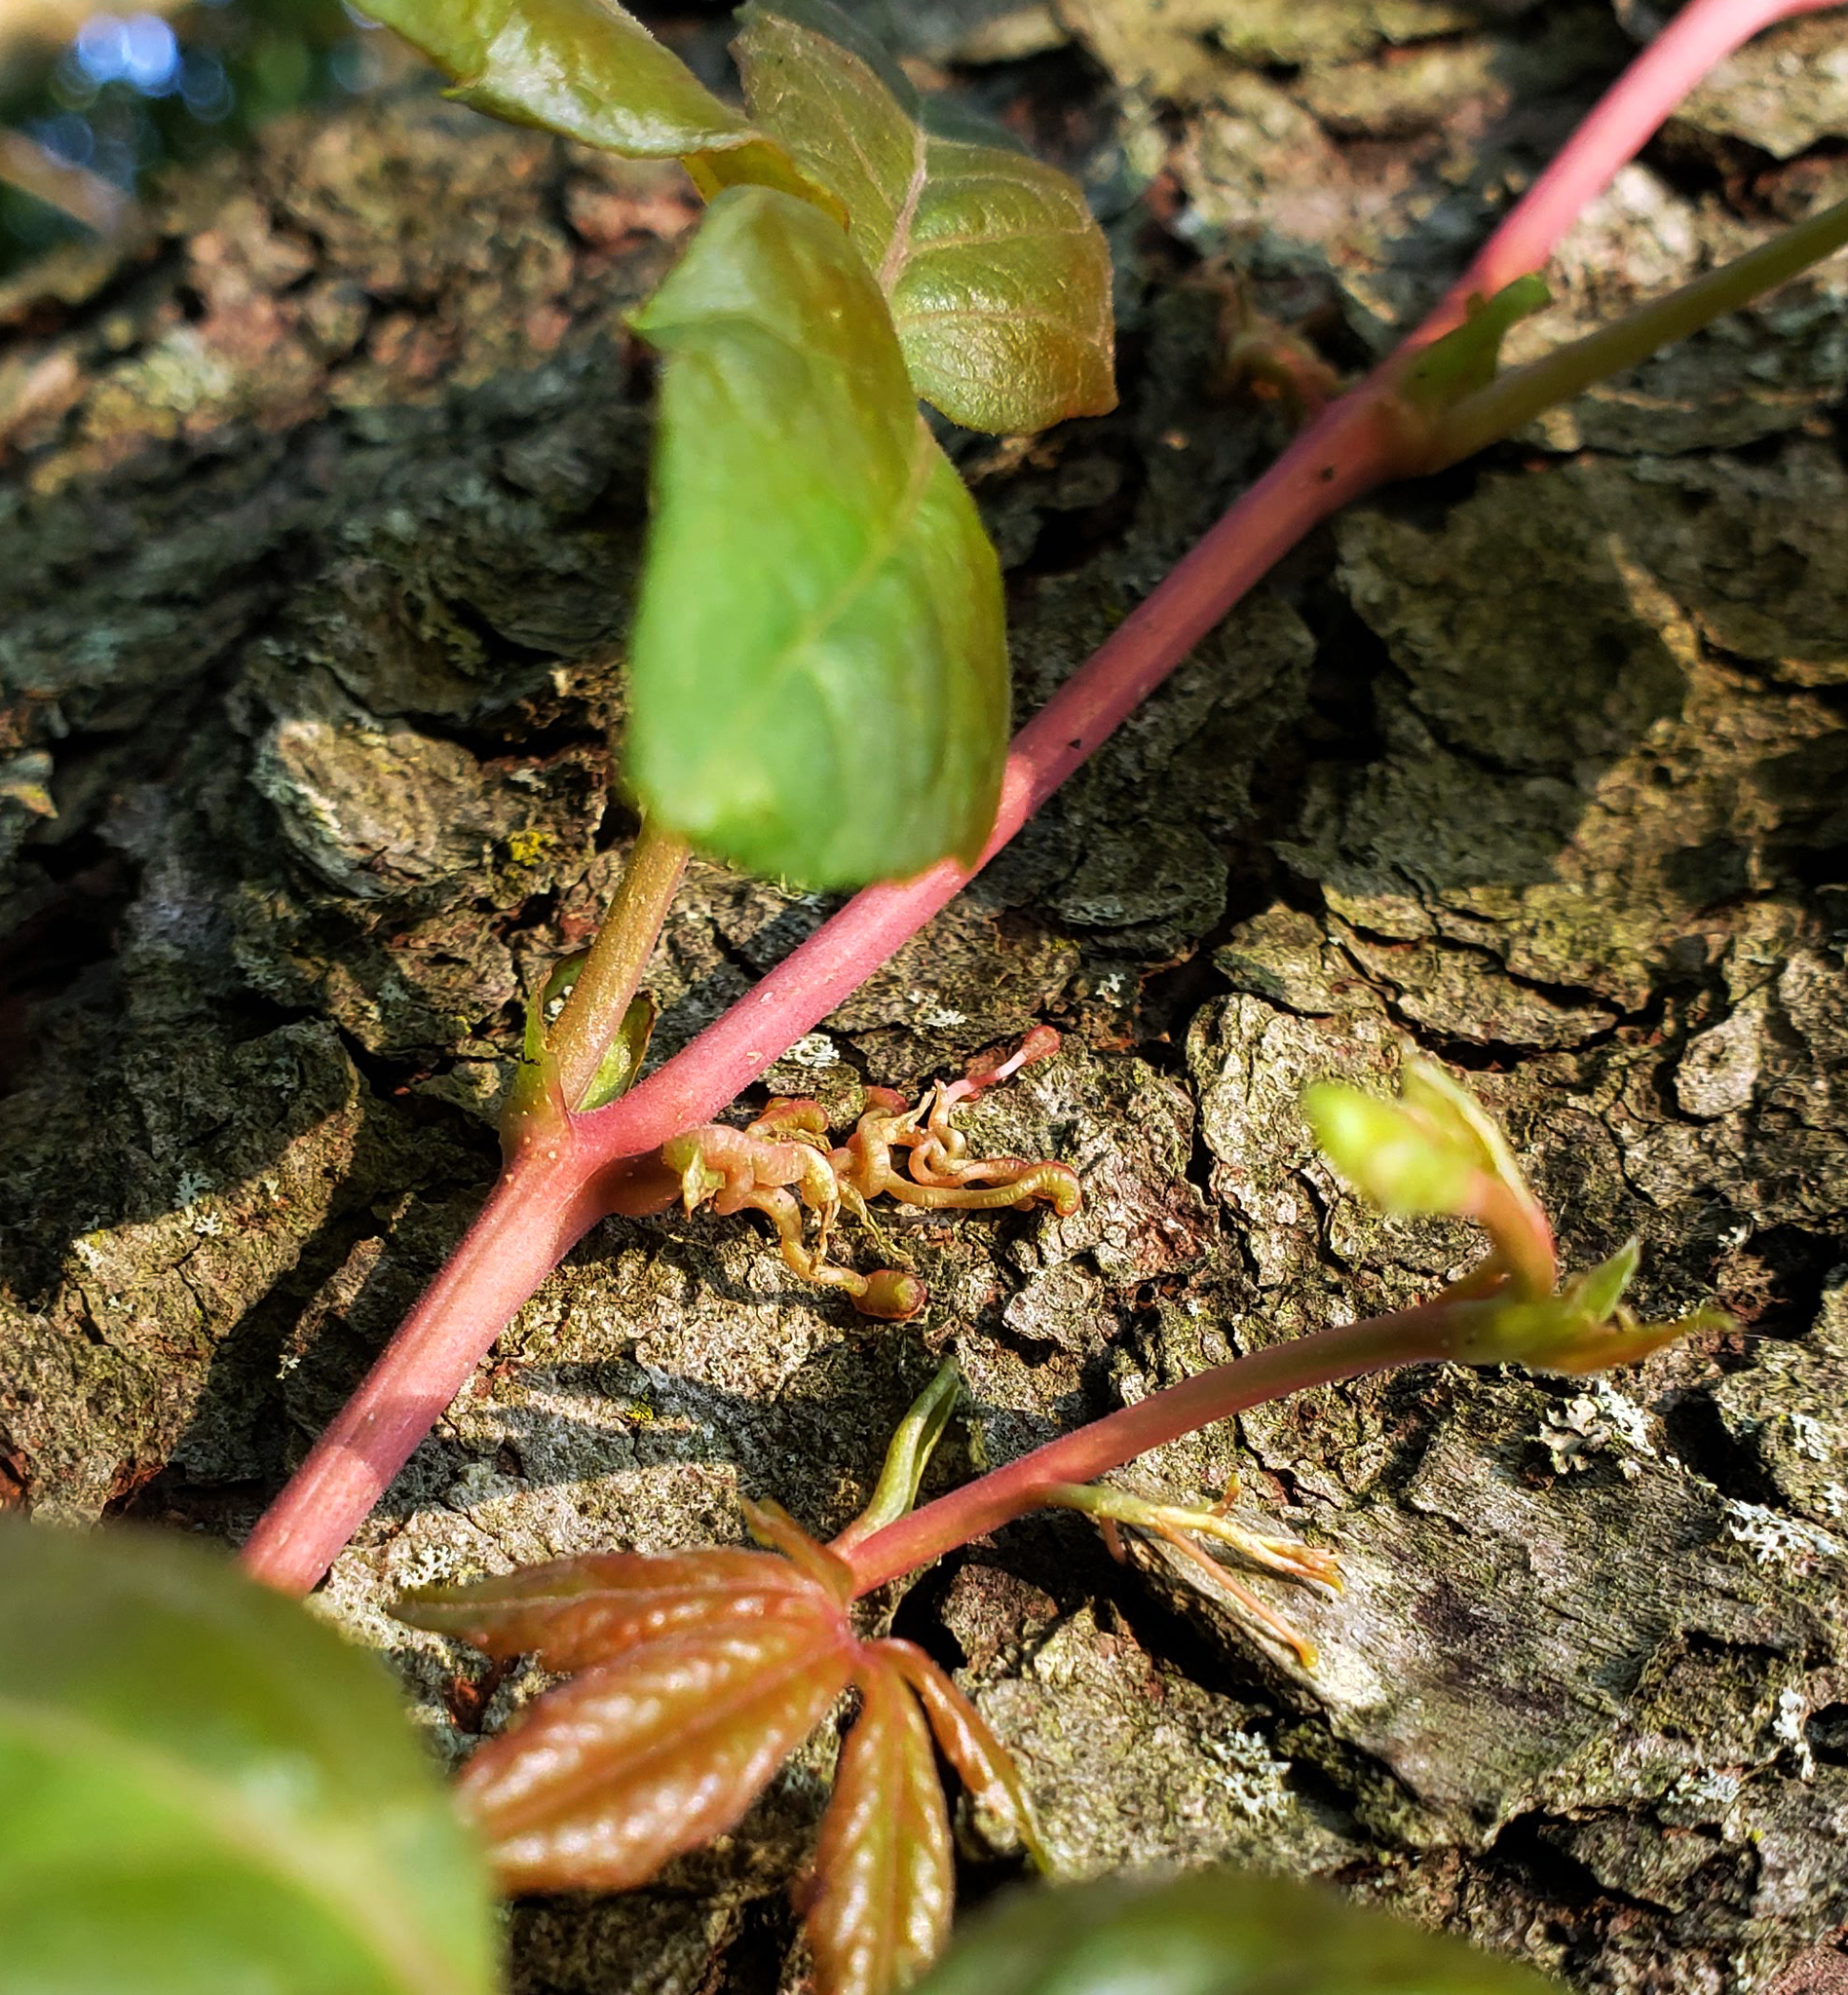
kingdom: Plantae
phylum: Tracheophyta
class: Magnoliopsida
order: Vitales
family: Vitaceae
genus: Parthenocissus
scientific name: Parthenocissus quinquefolia
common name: Virginia-creeper
